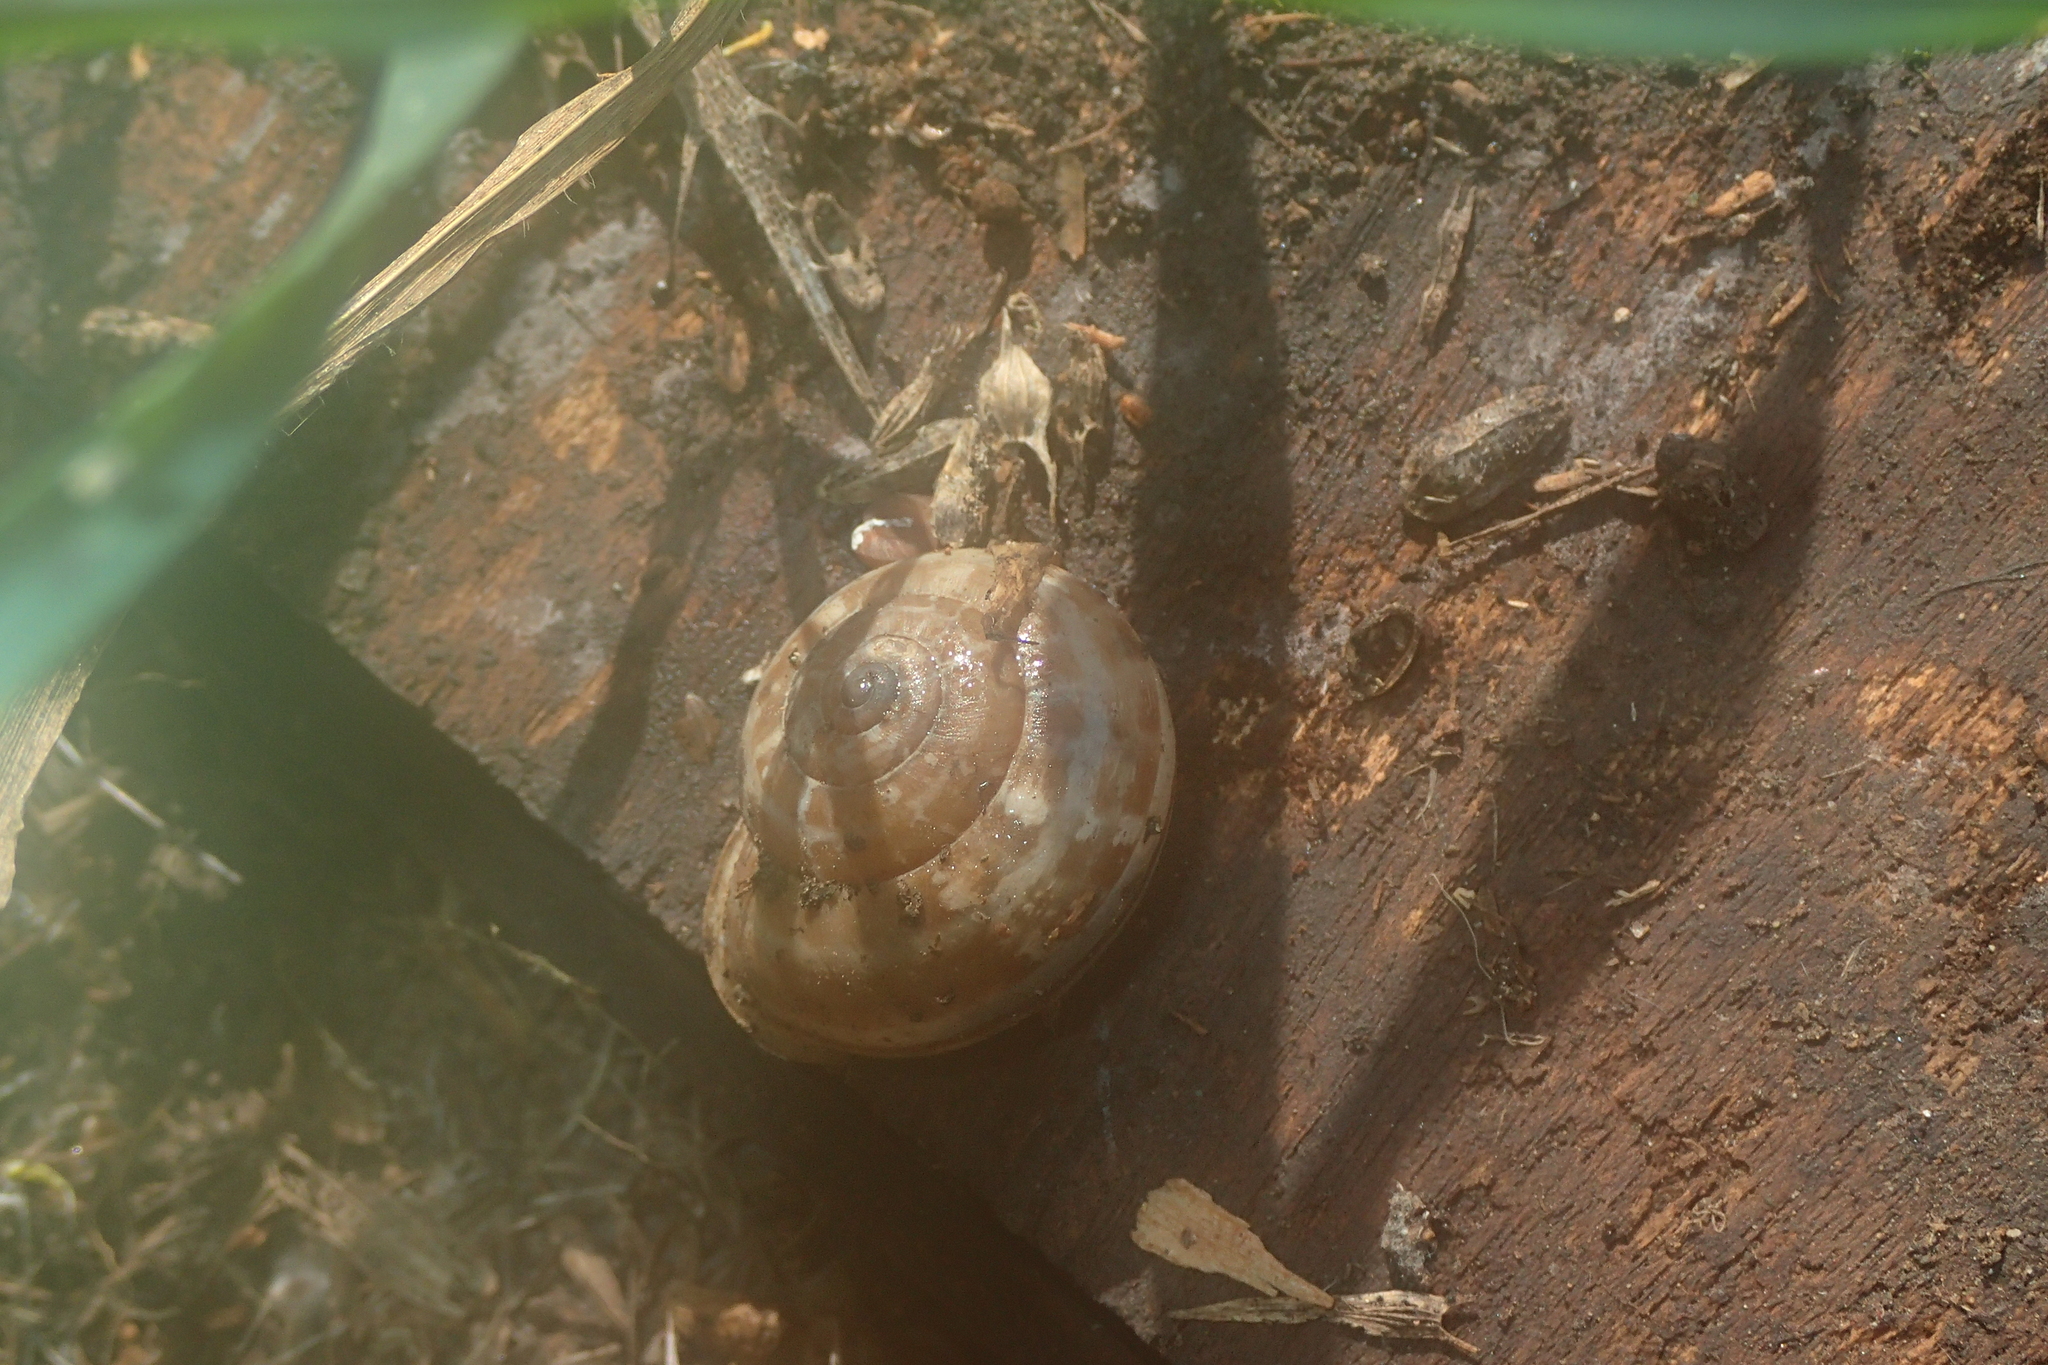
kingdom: Animalia
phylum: Mollusca
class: Gastropoda
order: Stylommatophora
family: Helicidae
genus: Eobania
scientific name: Eobania vermiculata
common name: Chocolateband snail
